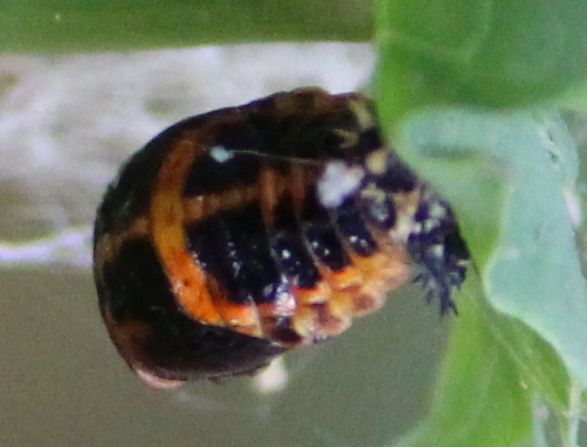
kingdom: Animalia
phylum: Arthropoda
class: Insecta
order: Coleoptera
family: Coccinellidae
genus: Harmonia
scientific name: Harmonia axyridis
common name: Harlequin ladybird
